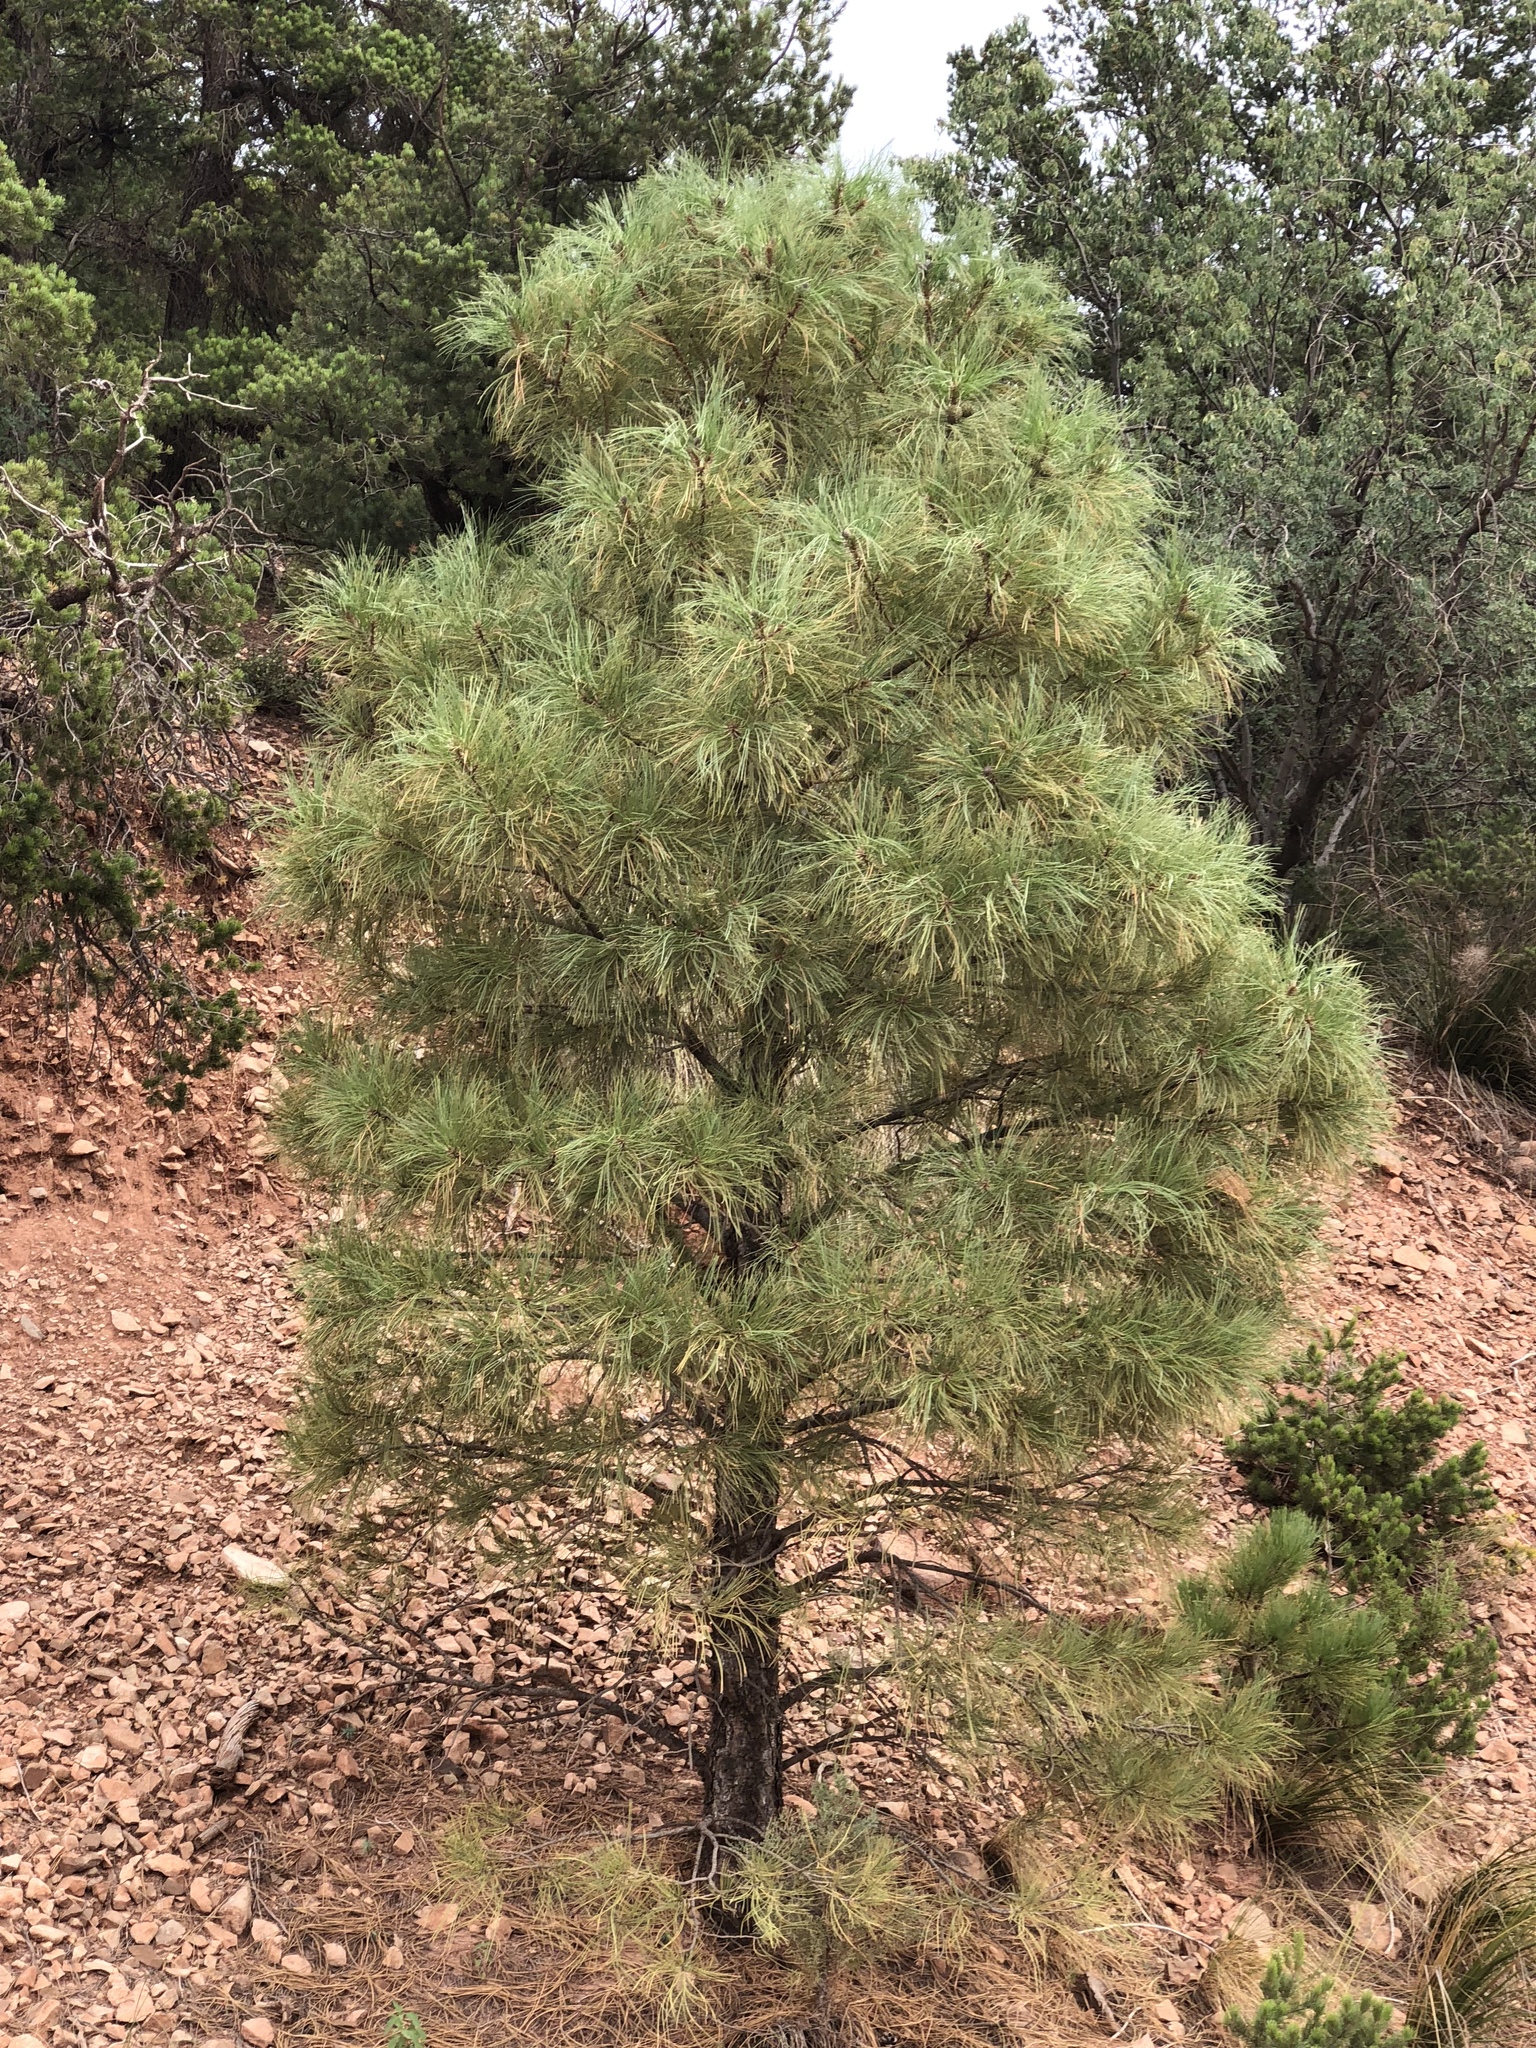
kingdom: Plantae
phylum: Tracheophyta
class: Pinopsida
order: Pinales
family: Pinaceae
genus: Pinus
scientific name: Pinus ponderosa
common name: Western yellow-pine
